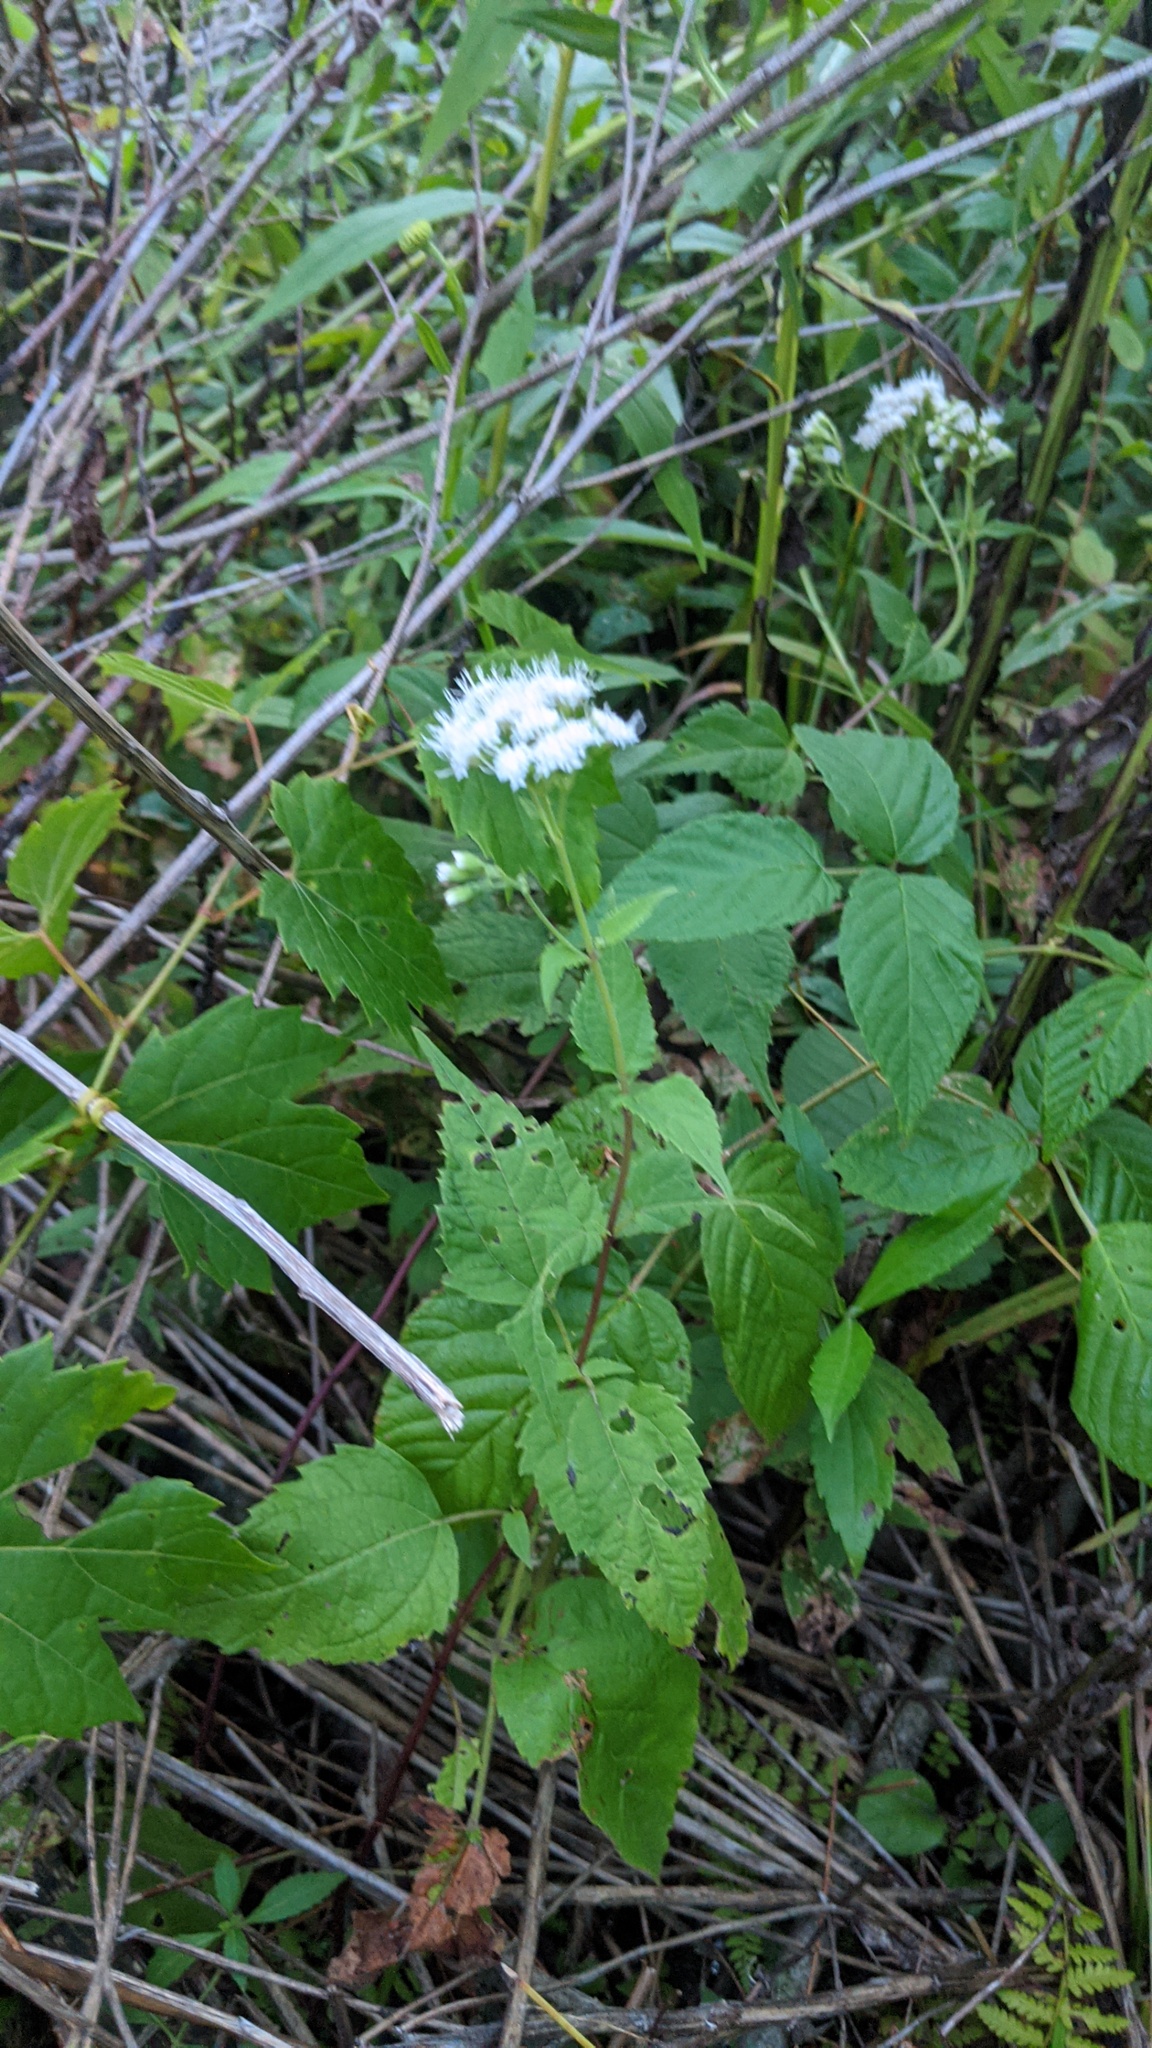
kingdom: Plantae
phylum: Tracheophyta
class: Magnoliopsida
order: Asterales
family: Asteraceae
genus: Ageratina
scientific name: Ageratina altissima
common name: White snakeroot
